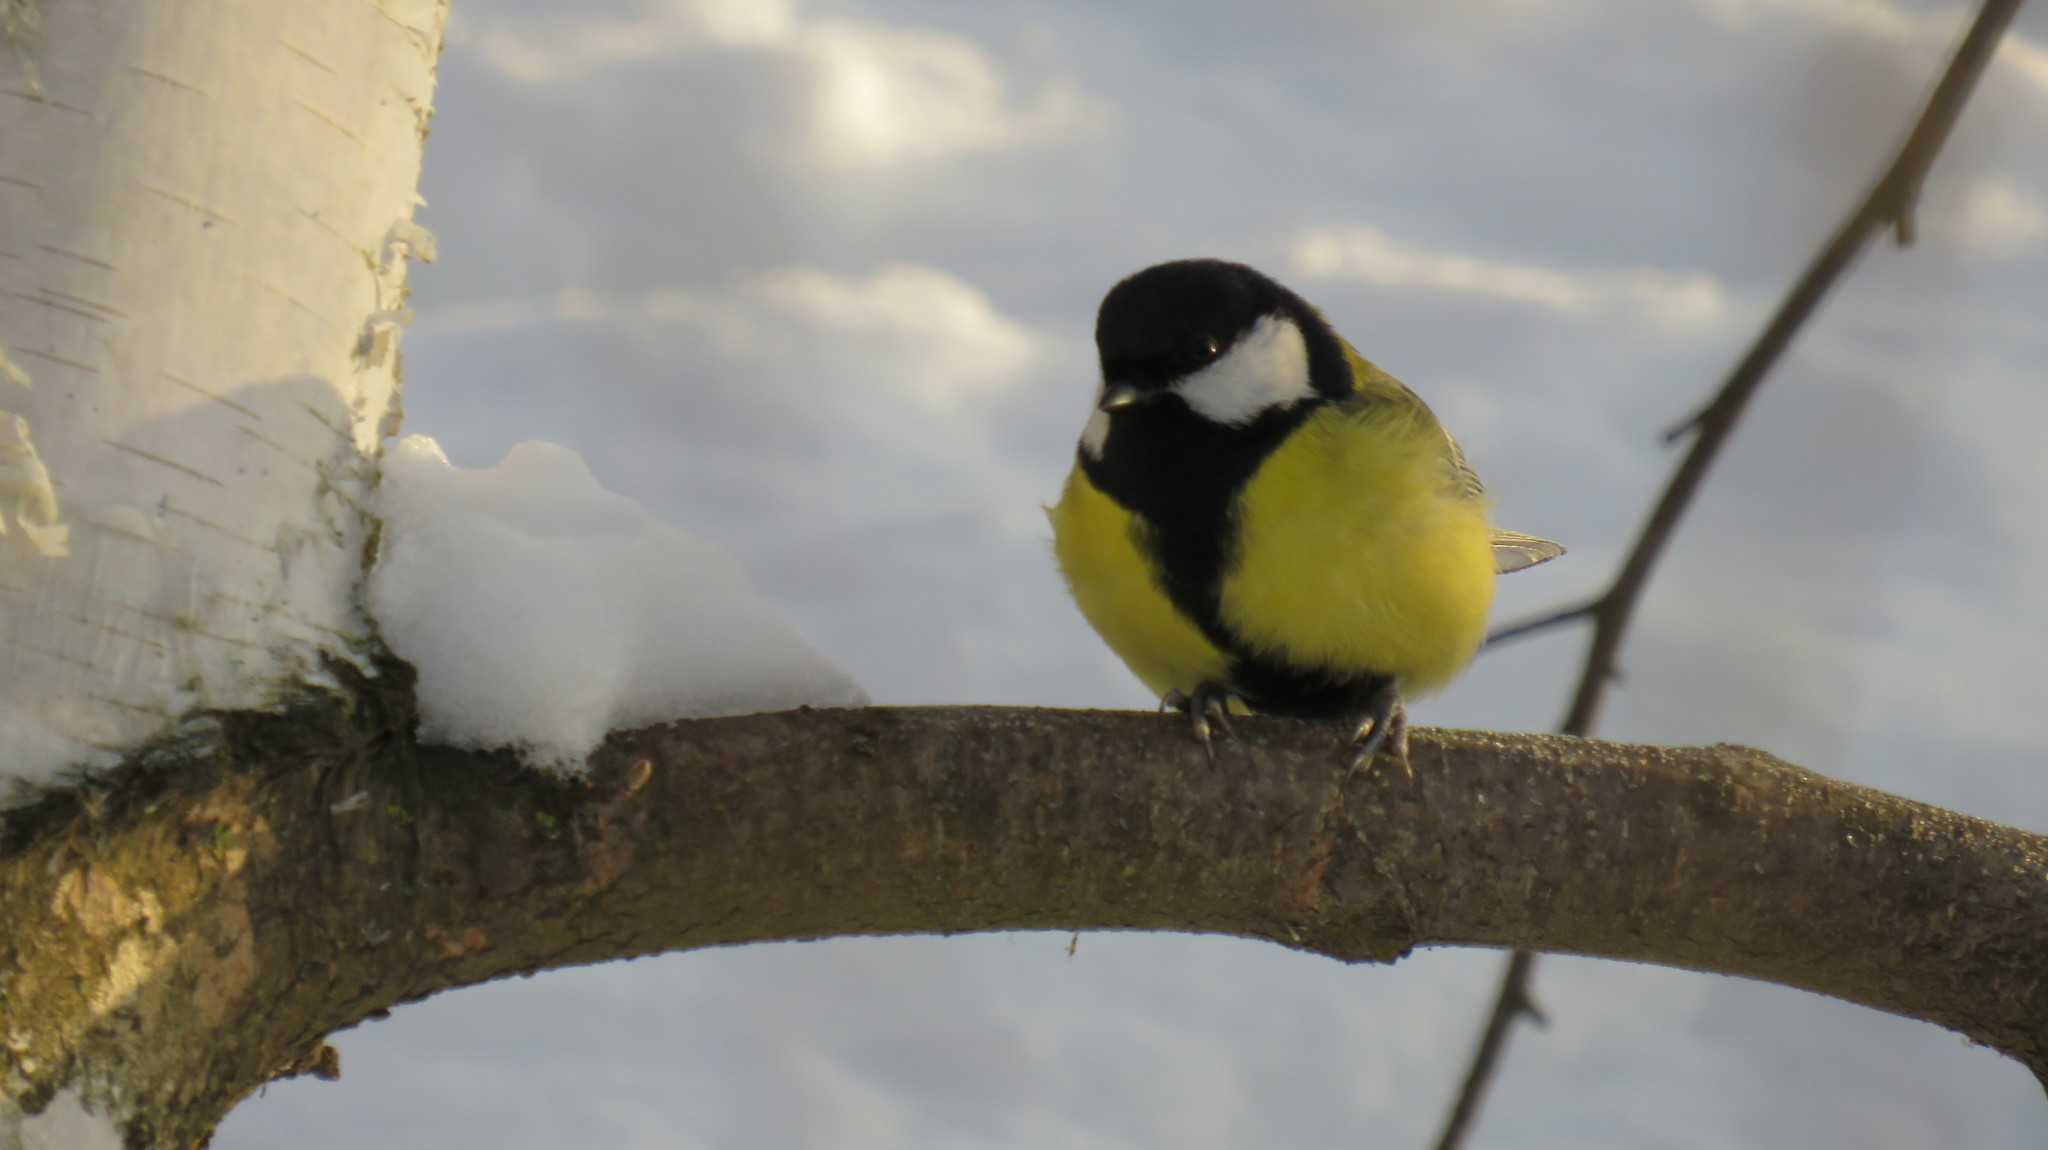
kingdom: Animalia
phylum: Chordata
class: Aves
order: Passeriformes
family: Paridae
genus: Parus
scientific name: Parus major
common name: Great tit
